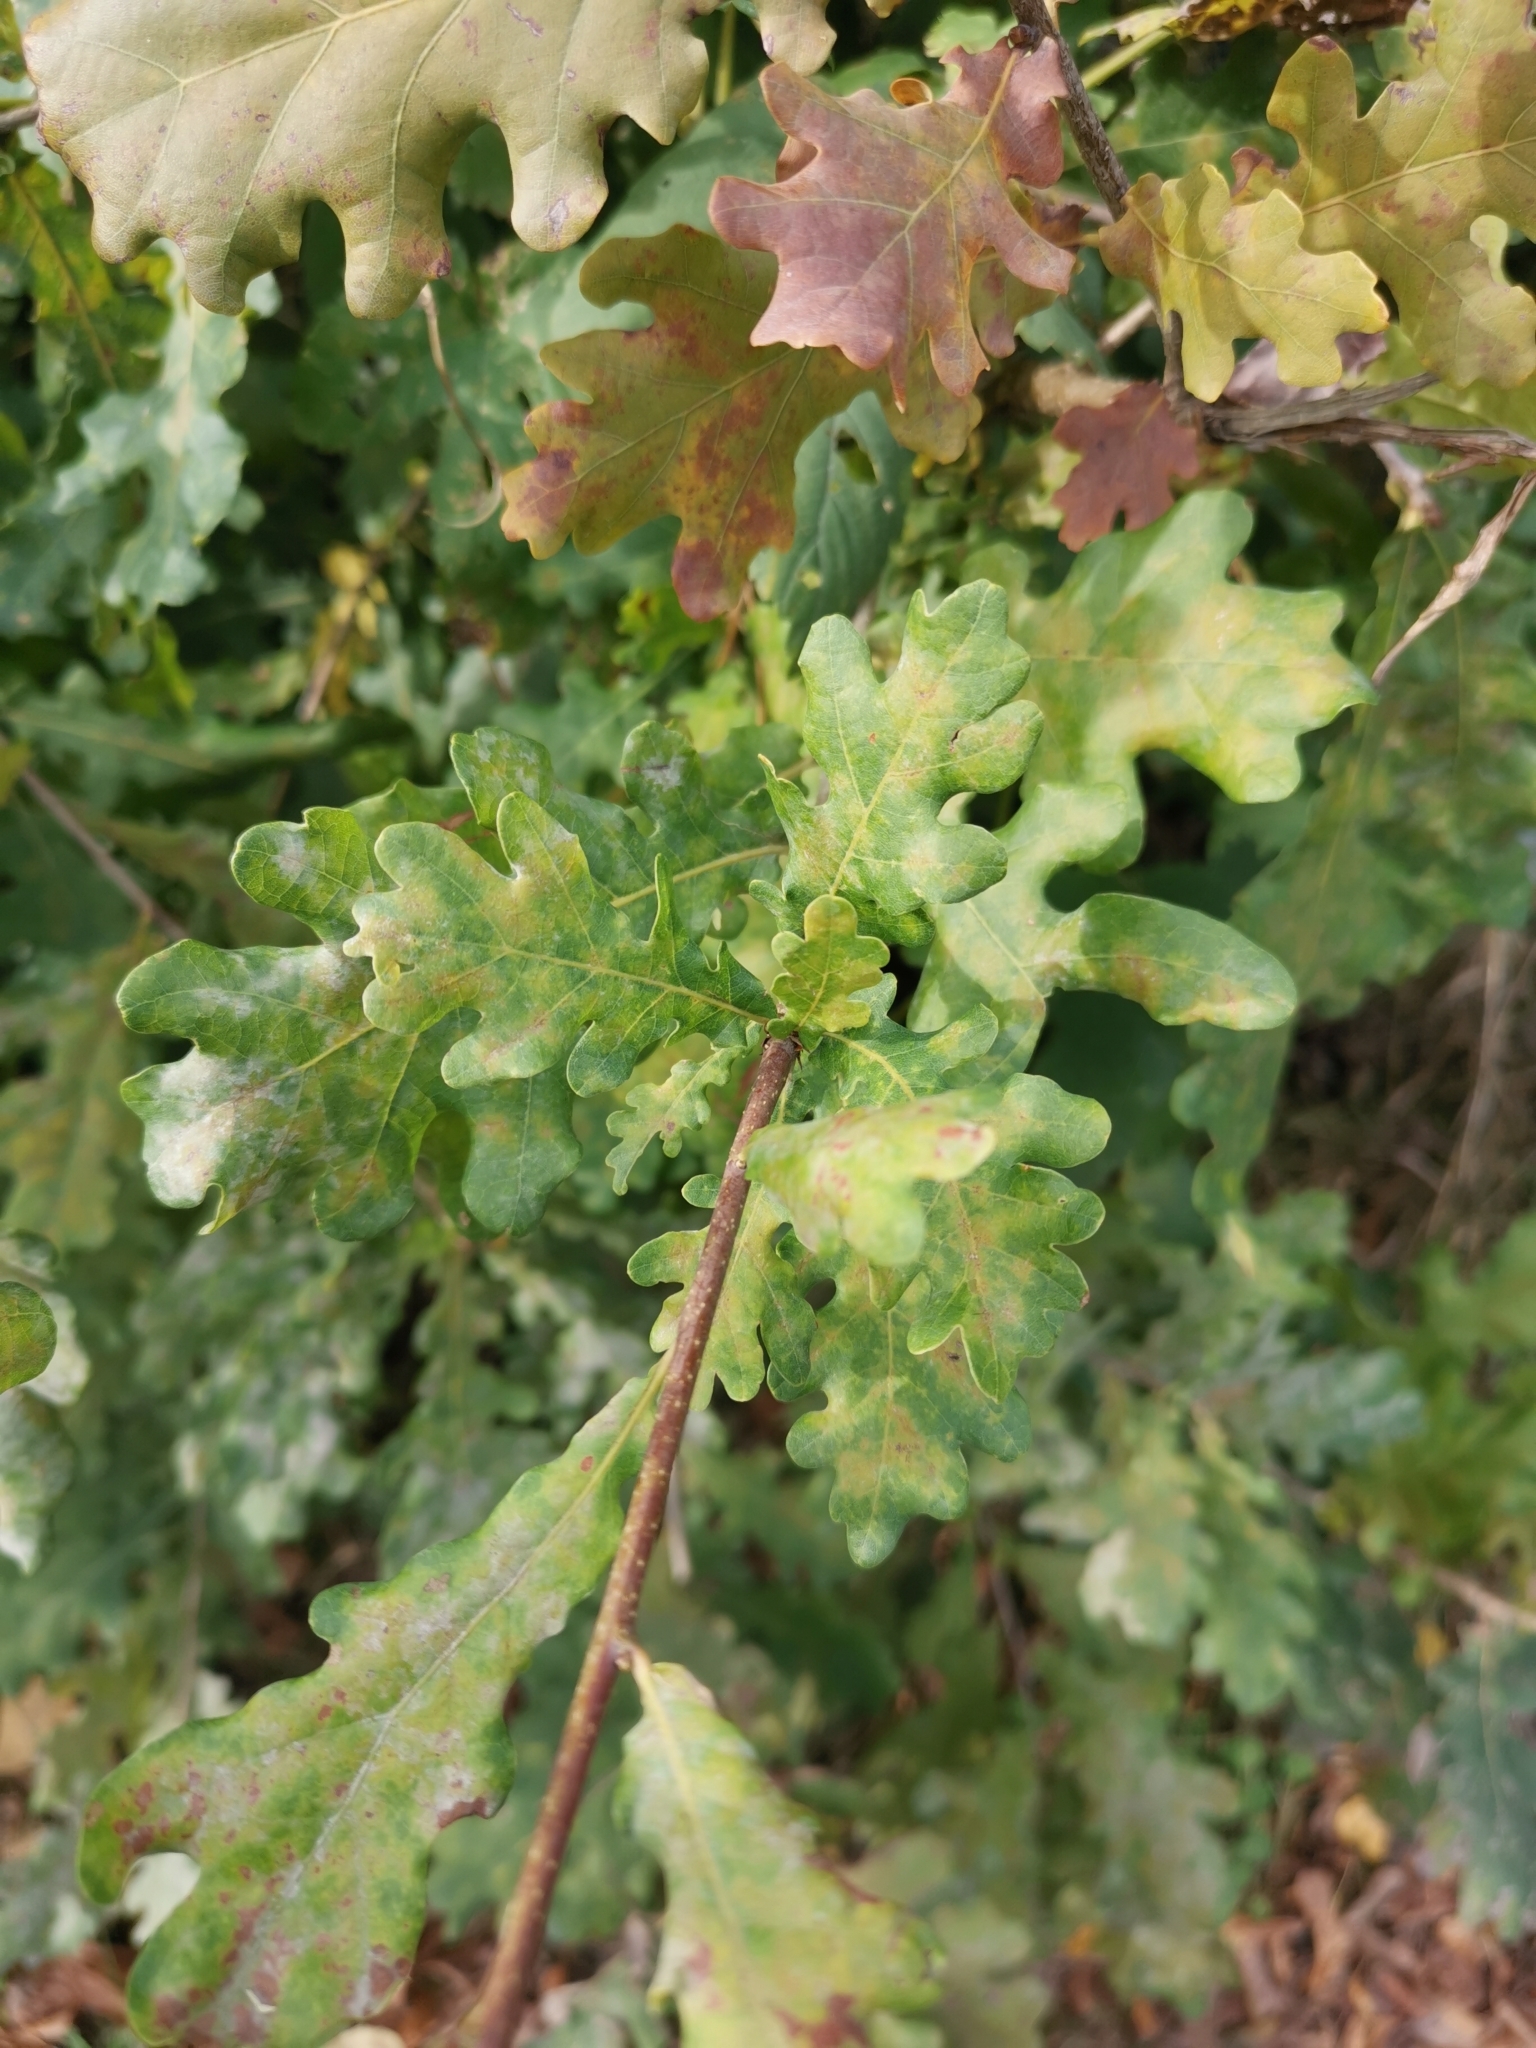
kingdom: Plantae
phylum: Tracheophyta
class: Magnoliopsida
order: Fagales
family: Fagaceae
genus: Quercus
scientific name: Quercus robur
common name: Pedunculate oak
